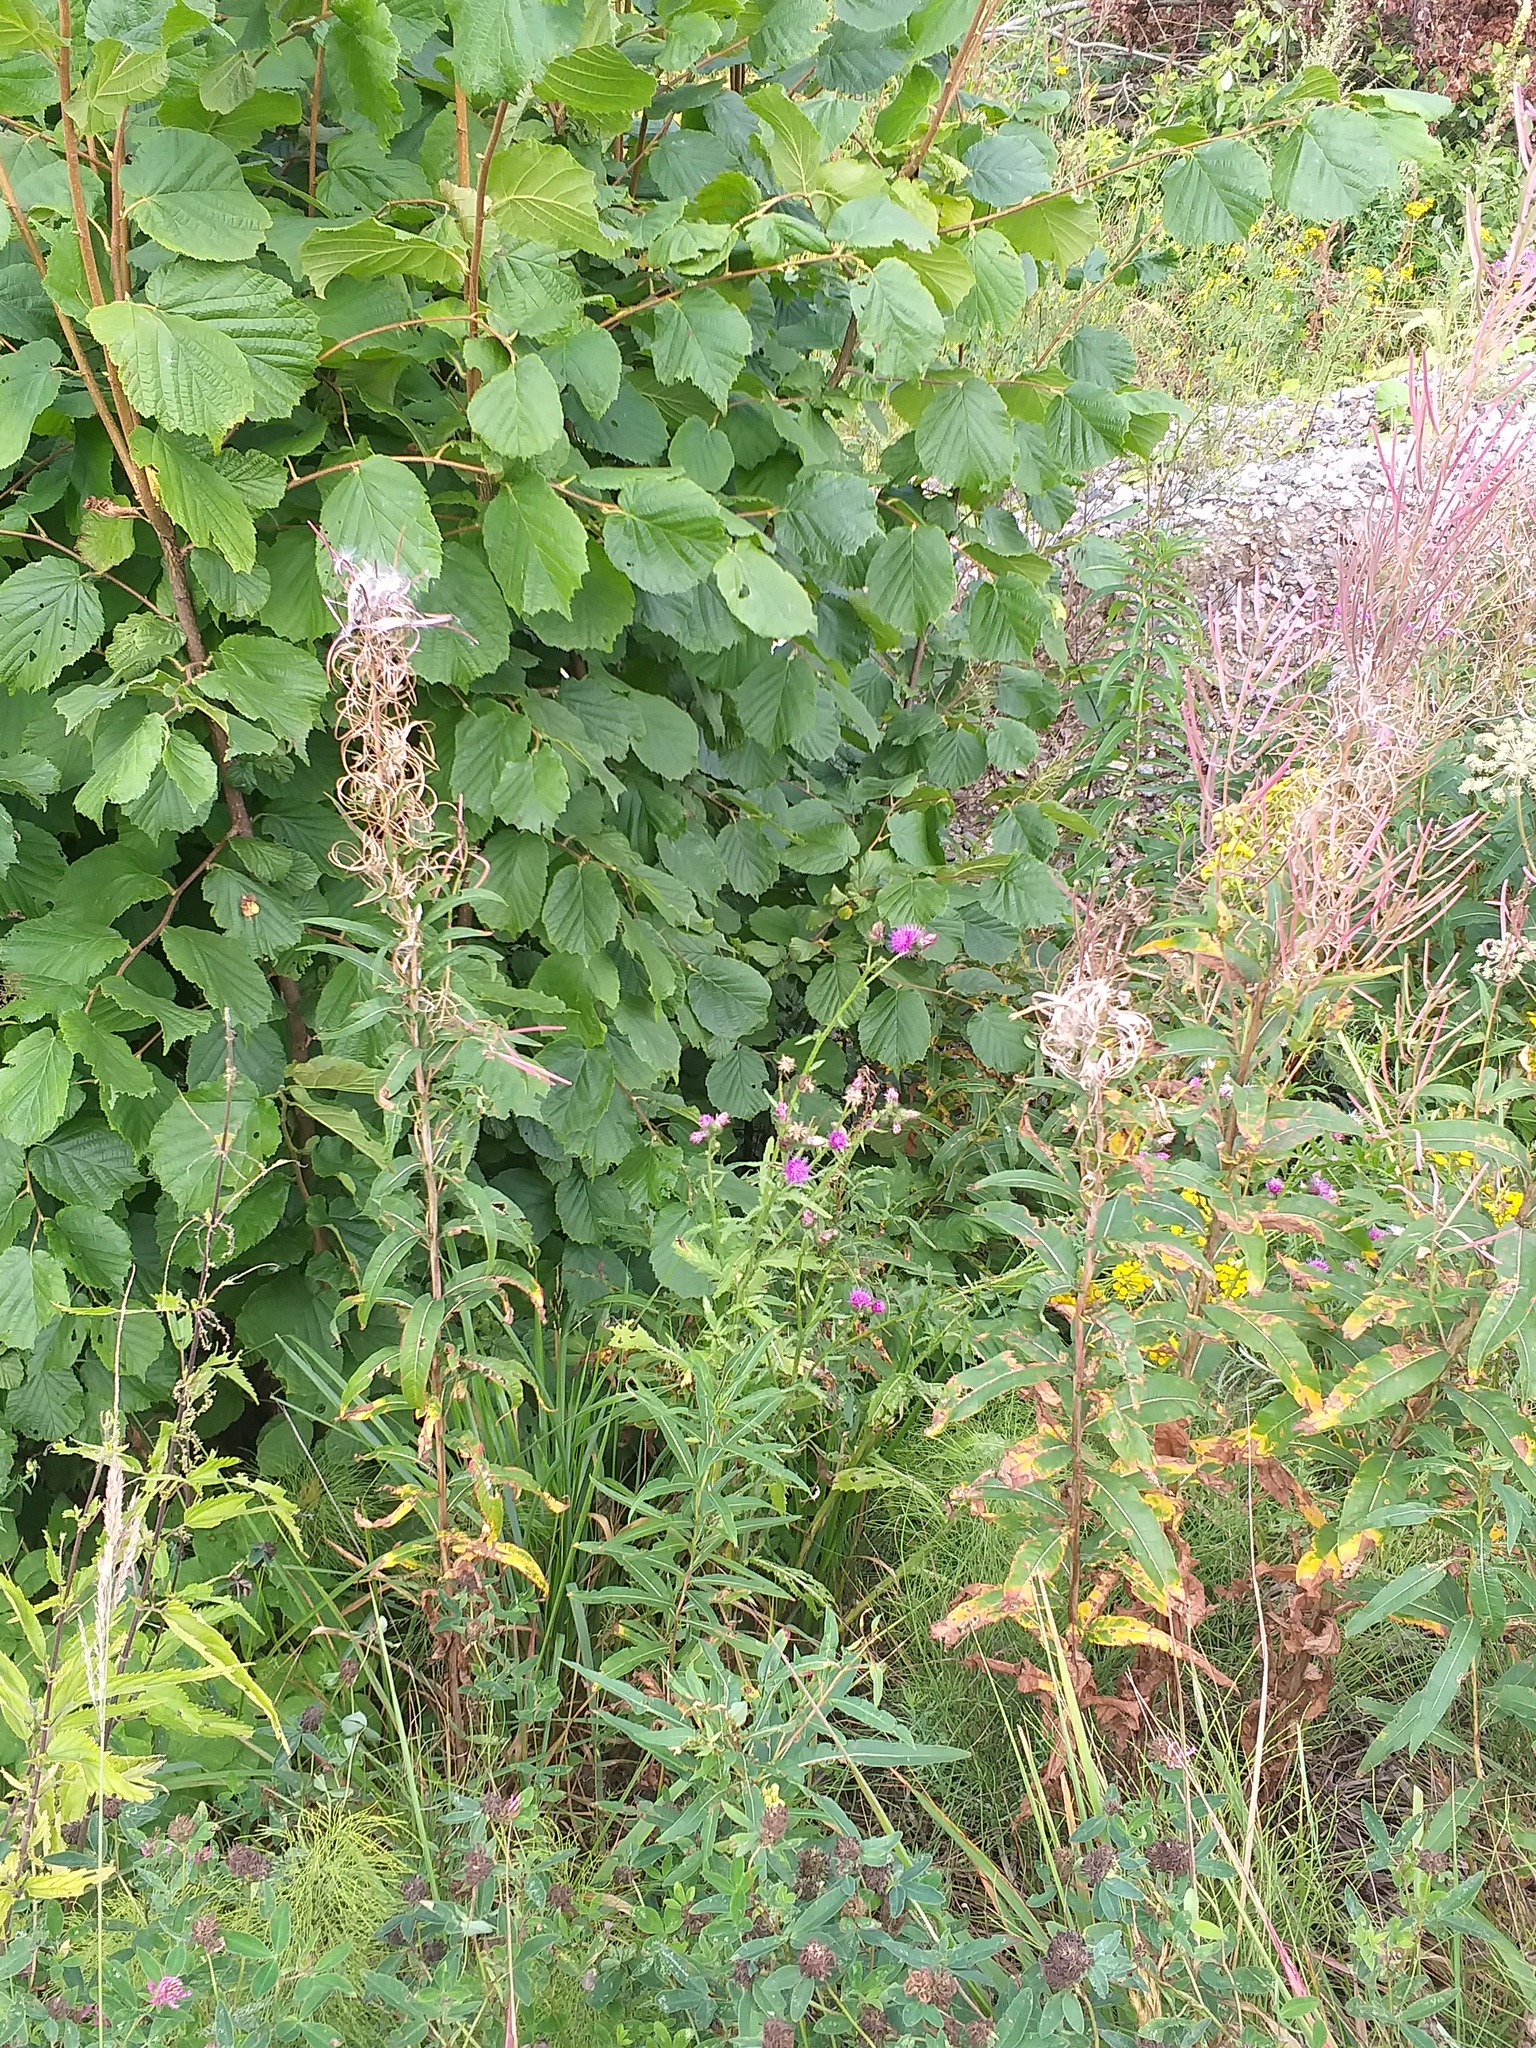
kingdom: Plantae
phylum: Tracheophyta
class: Magnoliopsida
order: Asterales
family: Asteraceae
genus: Carduus
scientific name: Carduus crispus
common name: Welted thistle
